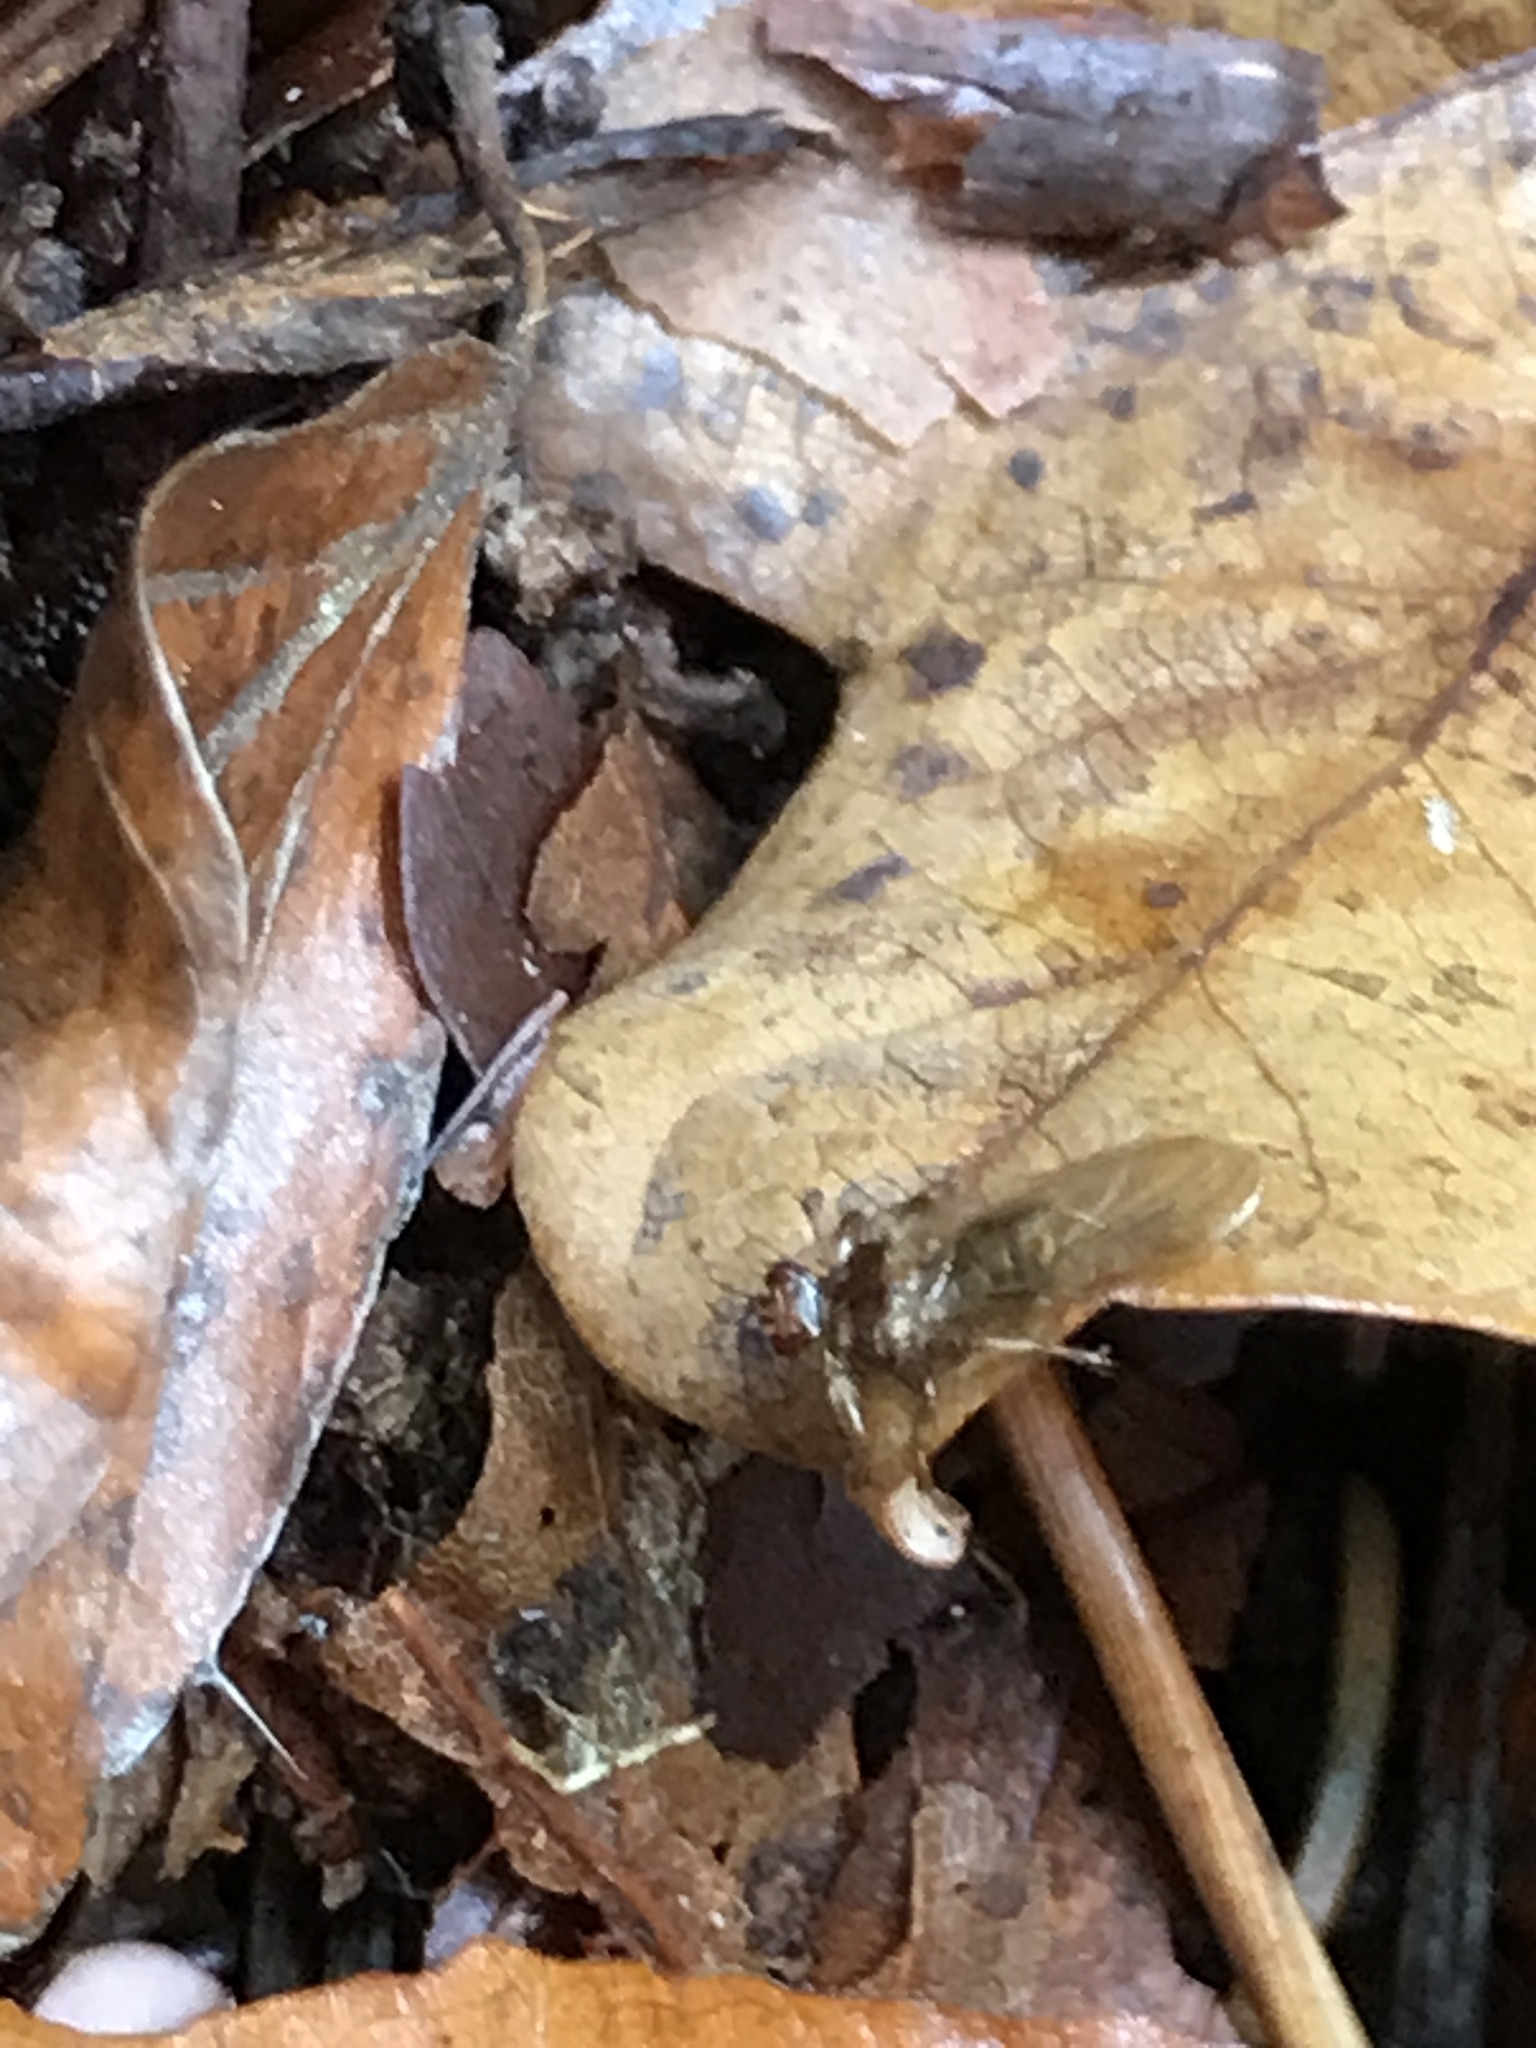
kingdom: Animalia
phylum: Arthropoda
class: Insecta
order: Diptera
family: Hippoboscidae
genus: Lipoptena
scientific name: Lipoptena cervi
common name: Deer ked
